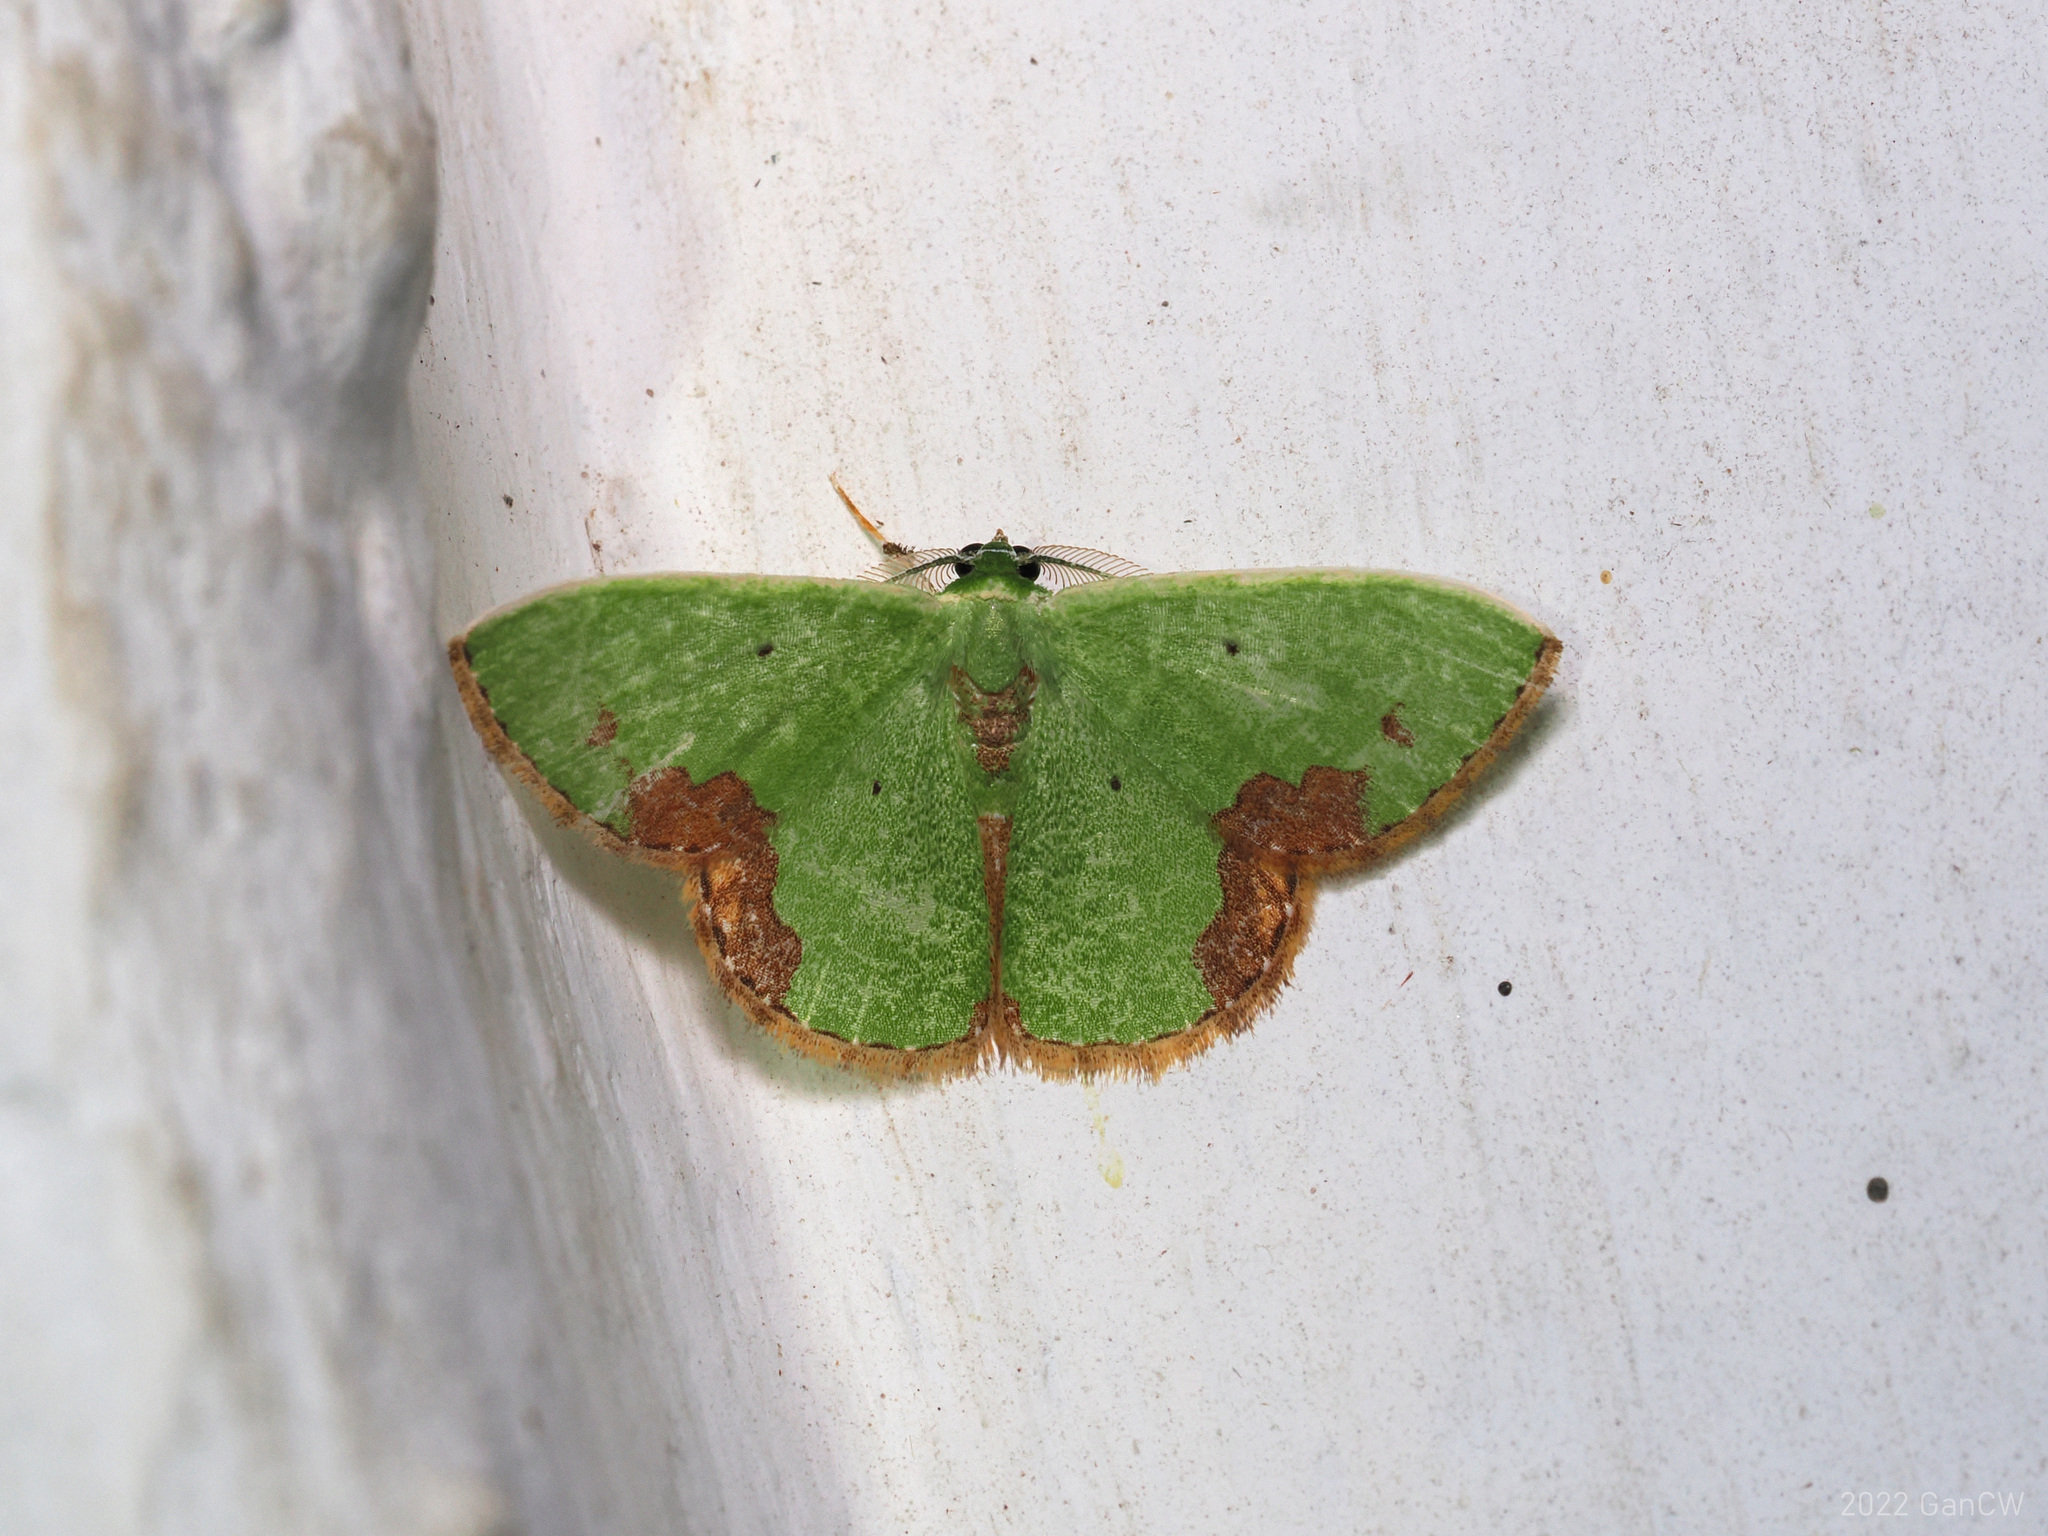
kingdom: Animalia
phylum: Arthropoda
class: Insecta
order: Lepidoptera
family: Geometridae
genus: Comibaena
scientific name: Comibaena attenuata
